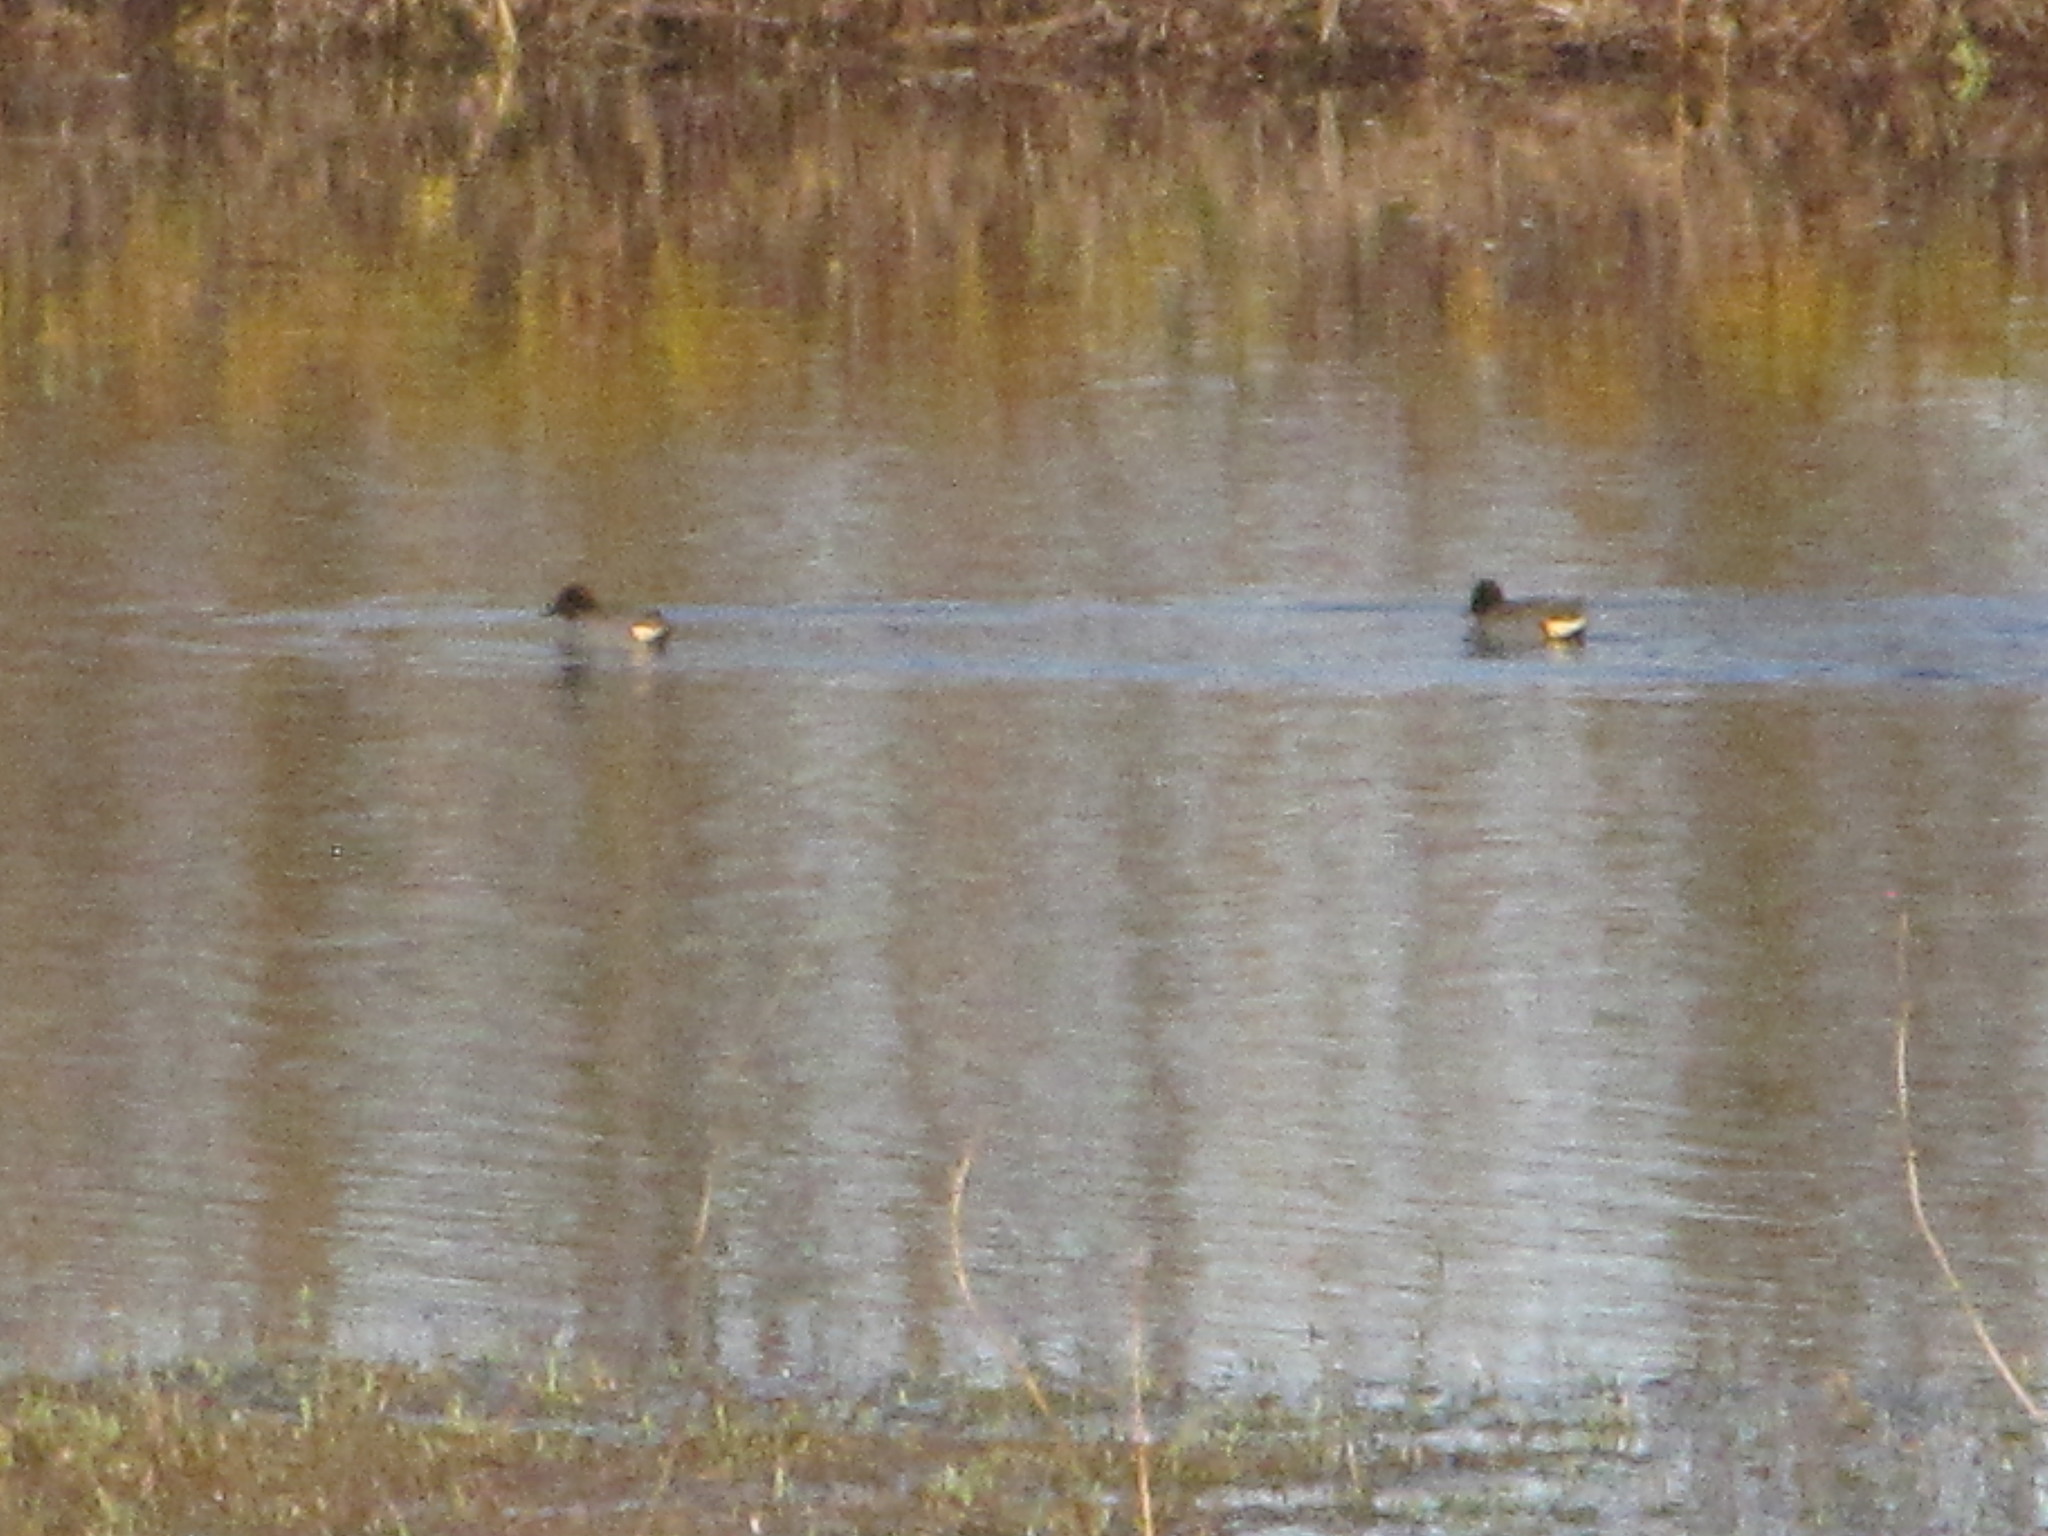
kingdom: Animalia
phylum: Chordata
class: Aves
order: Anseriformes
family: Anatidae
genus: Anas
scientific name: Anas crecca
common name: Eurasian teal
